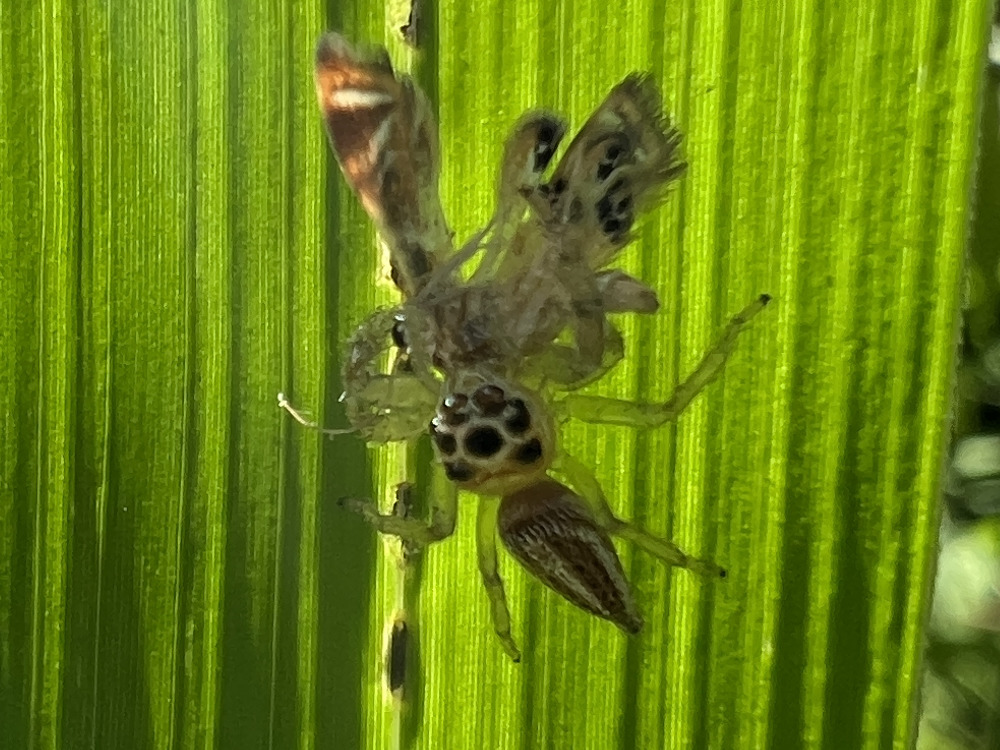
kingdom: Animalia
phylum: Arthropoda
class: Arachnida
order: Araneae
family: Salticidae
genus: Colonus
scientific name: Colonus sylvanus
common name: Jumping spiders
